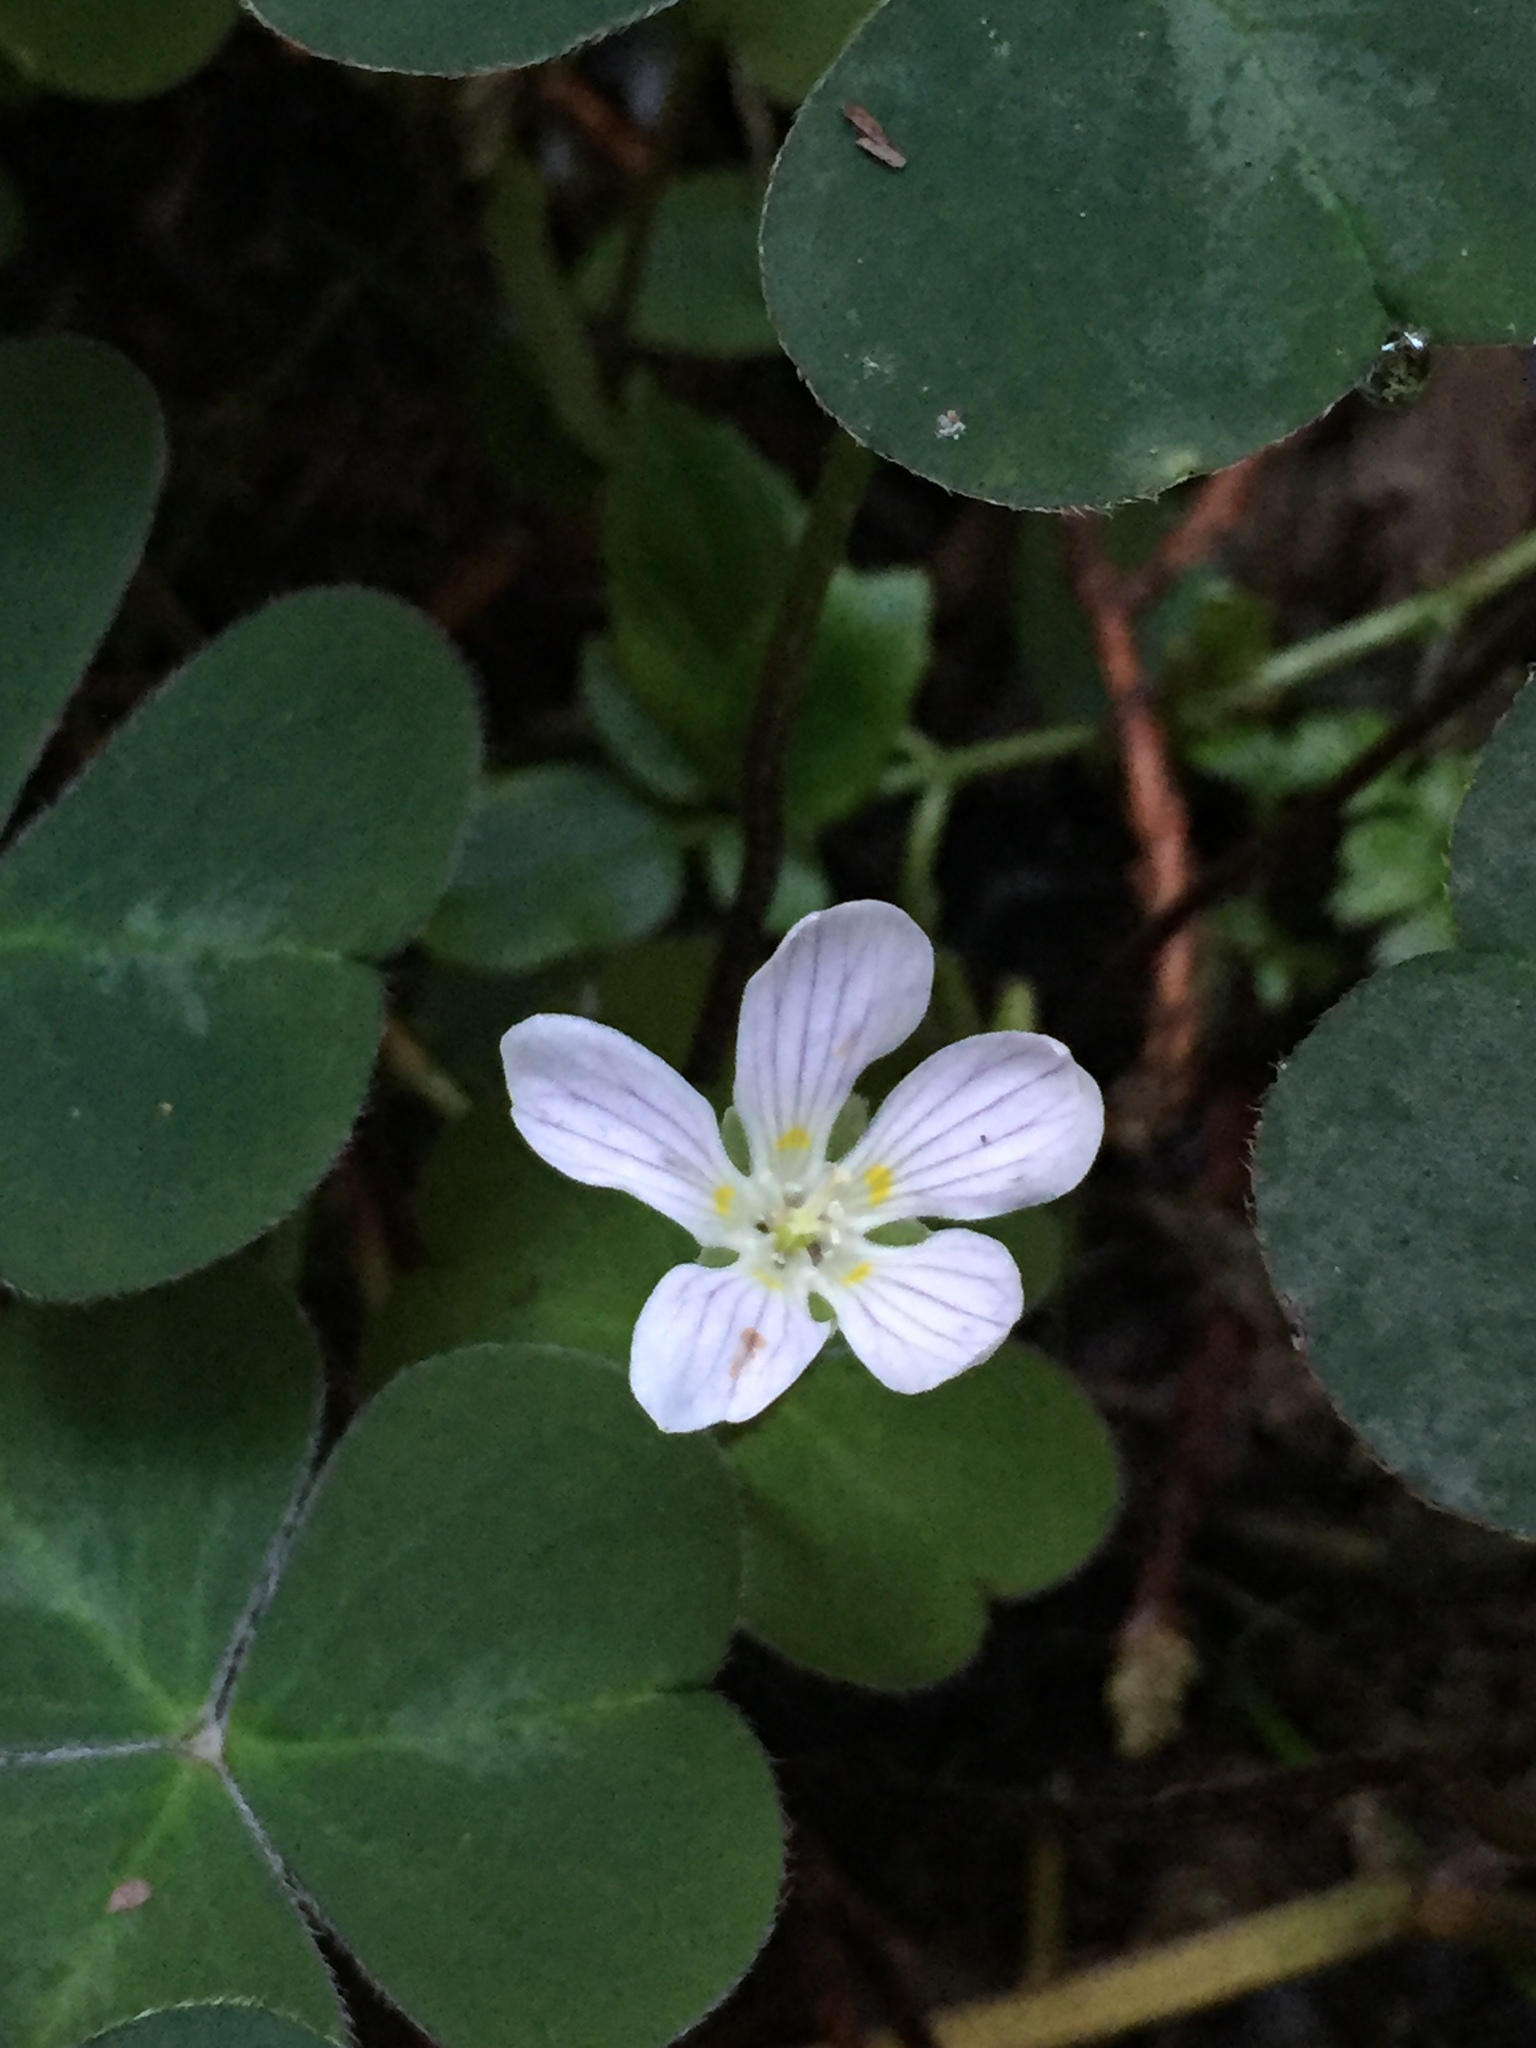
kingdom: Plantae
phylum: Tracheophyta
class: Magnoliopsida
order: Oxalidales
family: Oxalidaceae
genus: Oxalis
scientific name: Oxalis oregana
